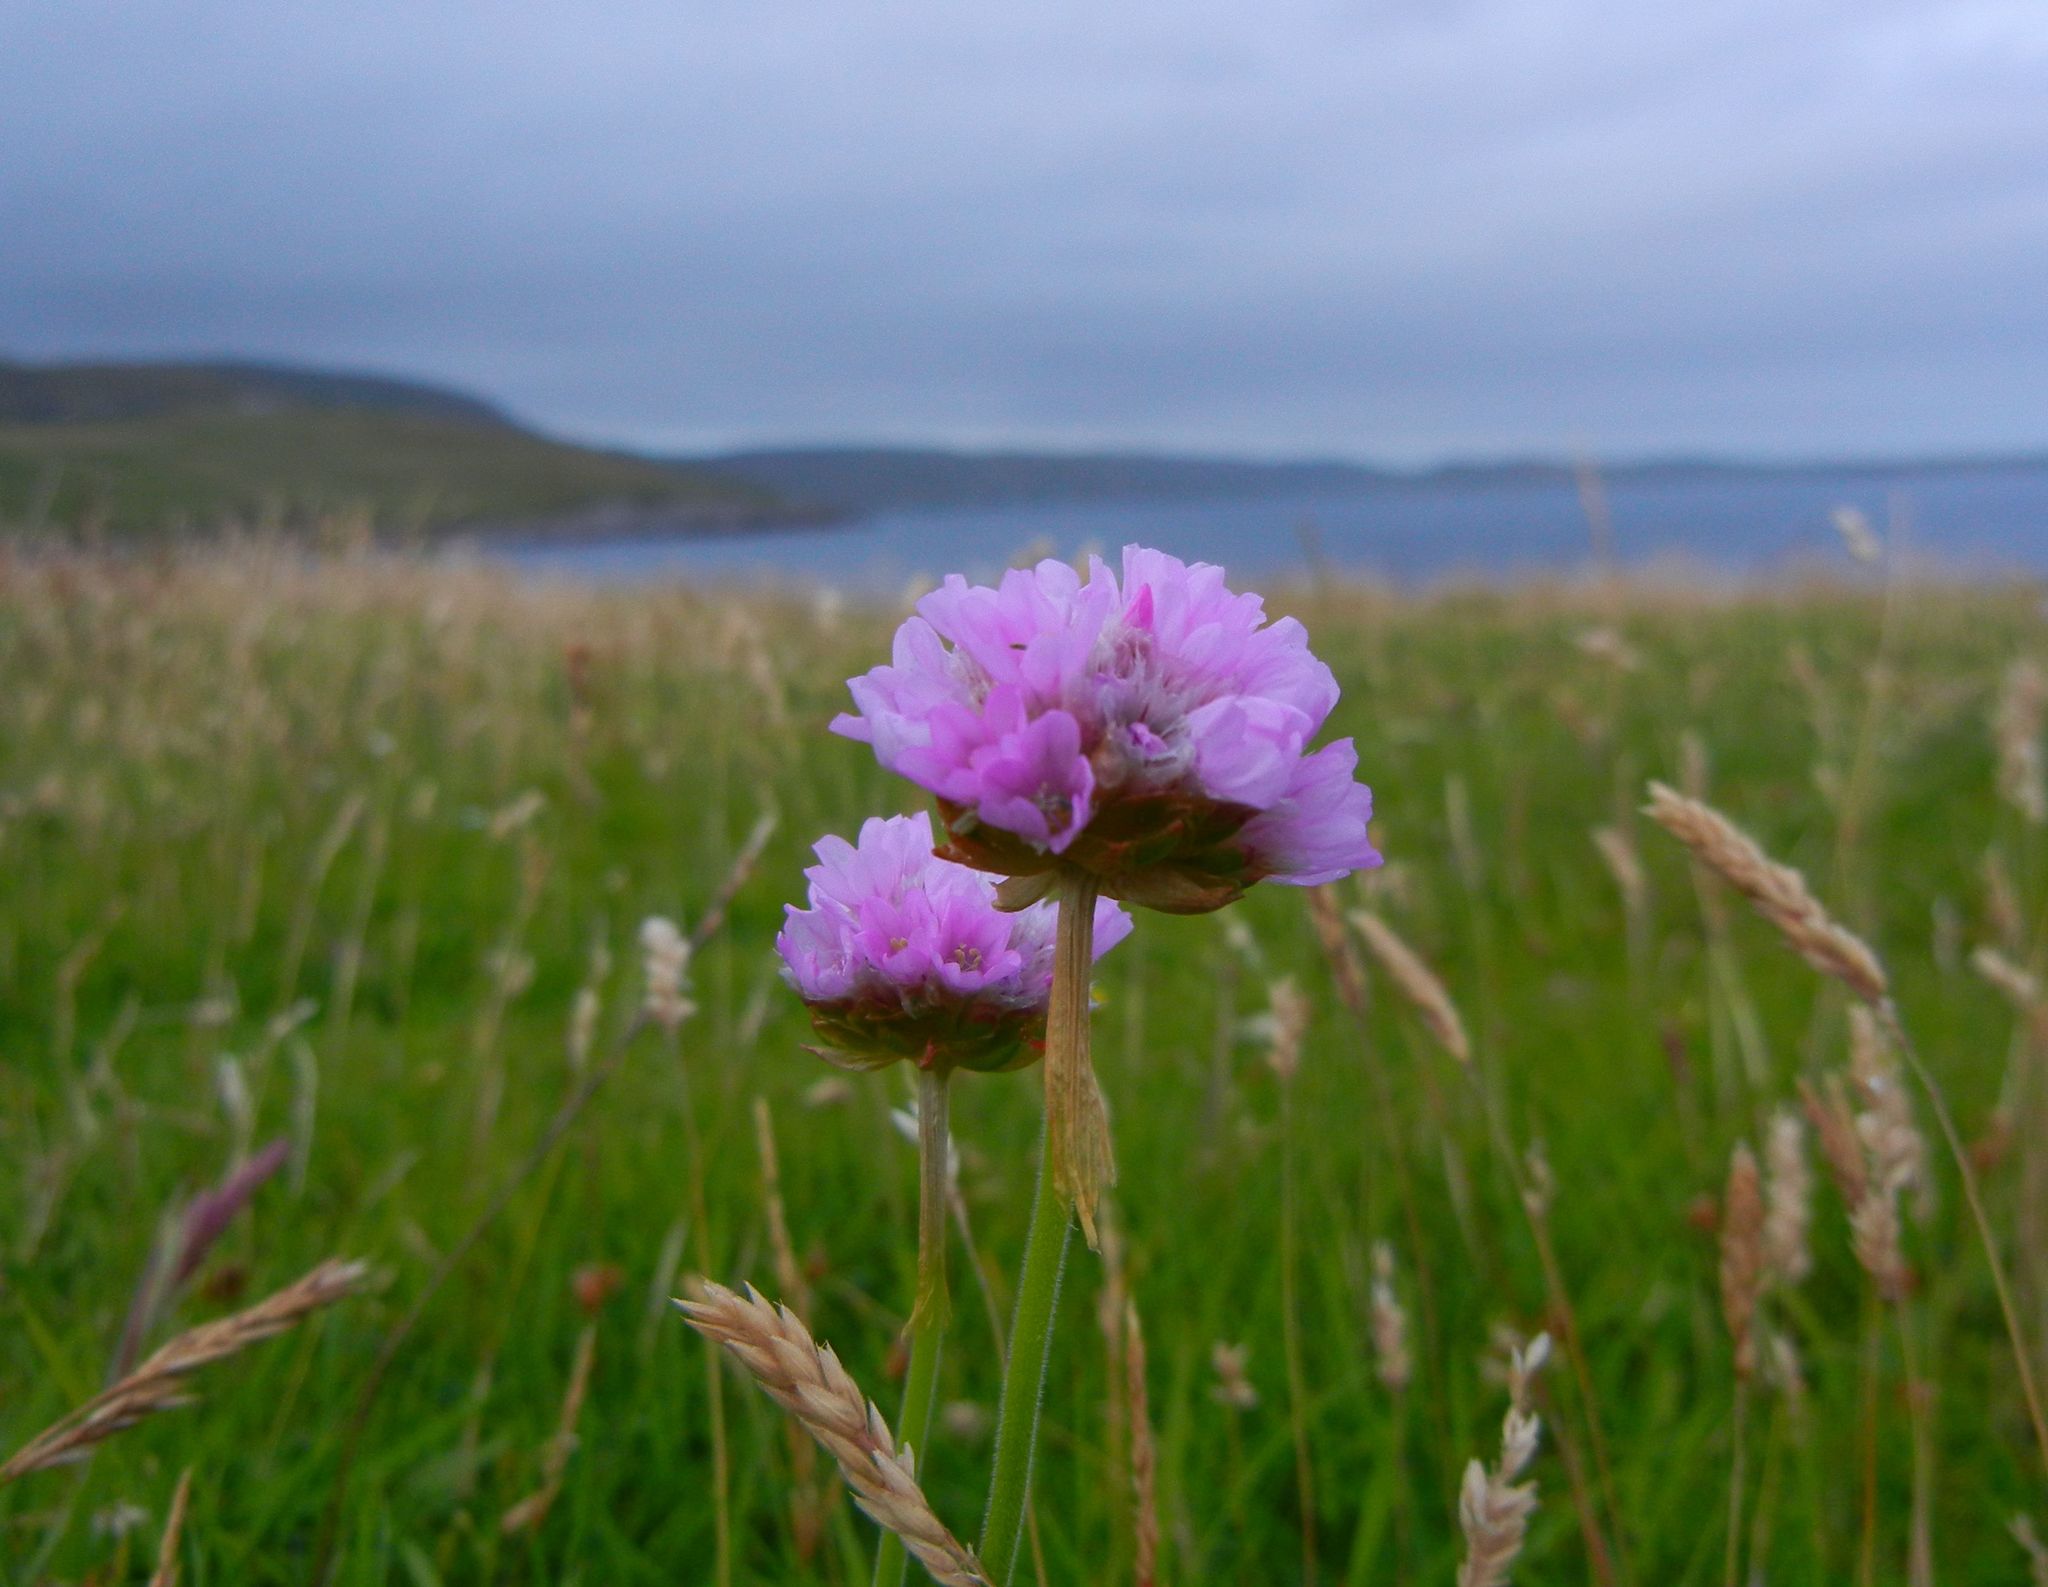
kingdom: Plantae
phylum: Tracheophyta
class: Magnoliopsida
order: Caryophyllales
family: Plumbaginaceae
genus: Armeria
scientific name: Armeria maritima
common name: Thrift
